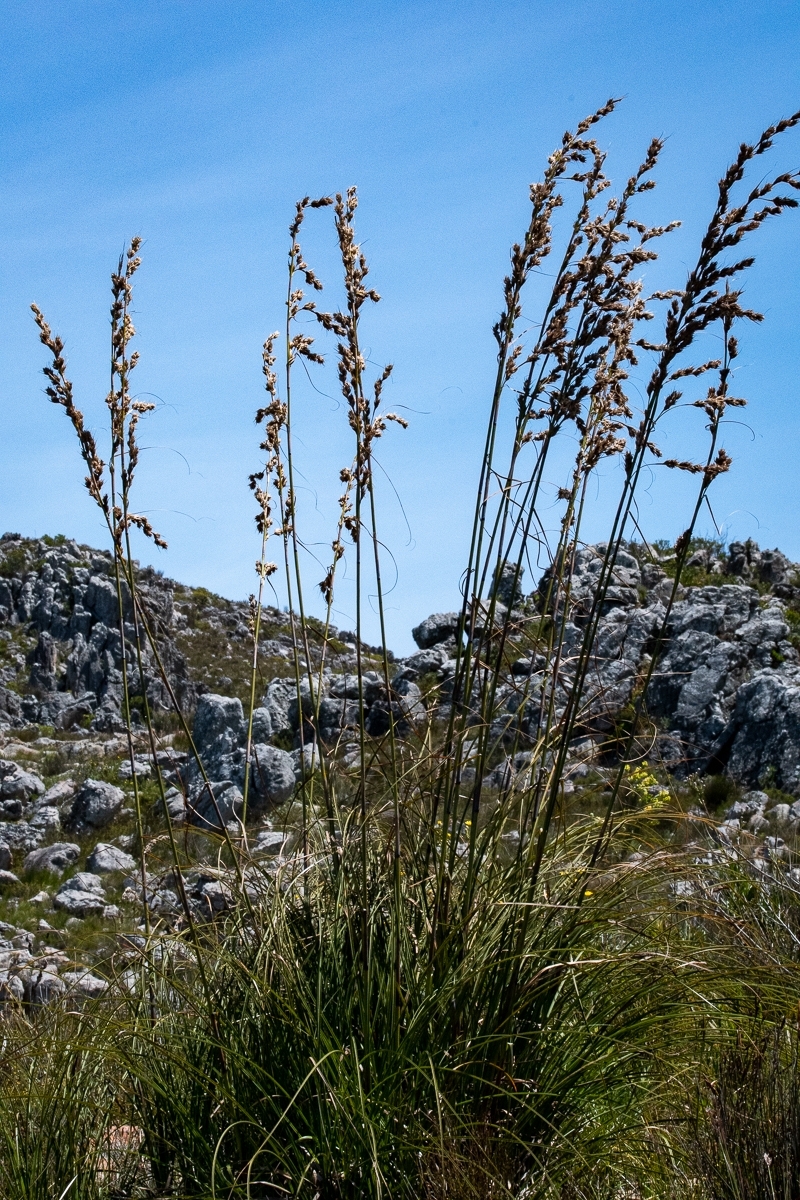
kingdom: Plantae
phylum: Tracheophyta
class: Liliopsida
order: Poales
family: Cyperaceae
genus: Tetraria
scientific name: Tetraria bromoides
